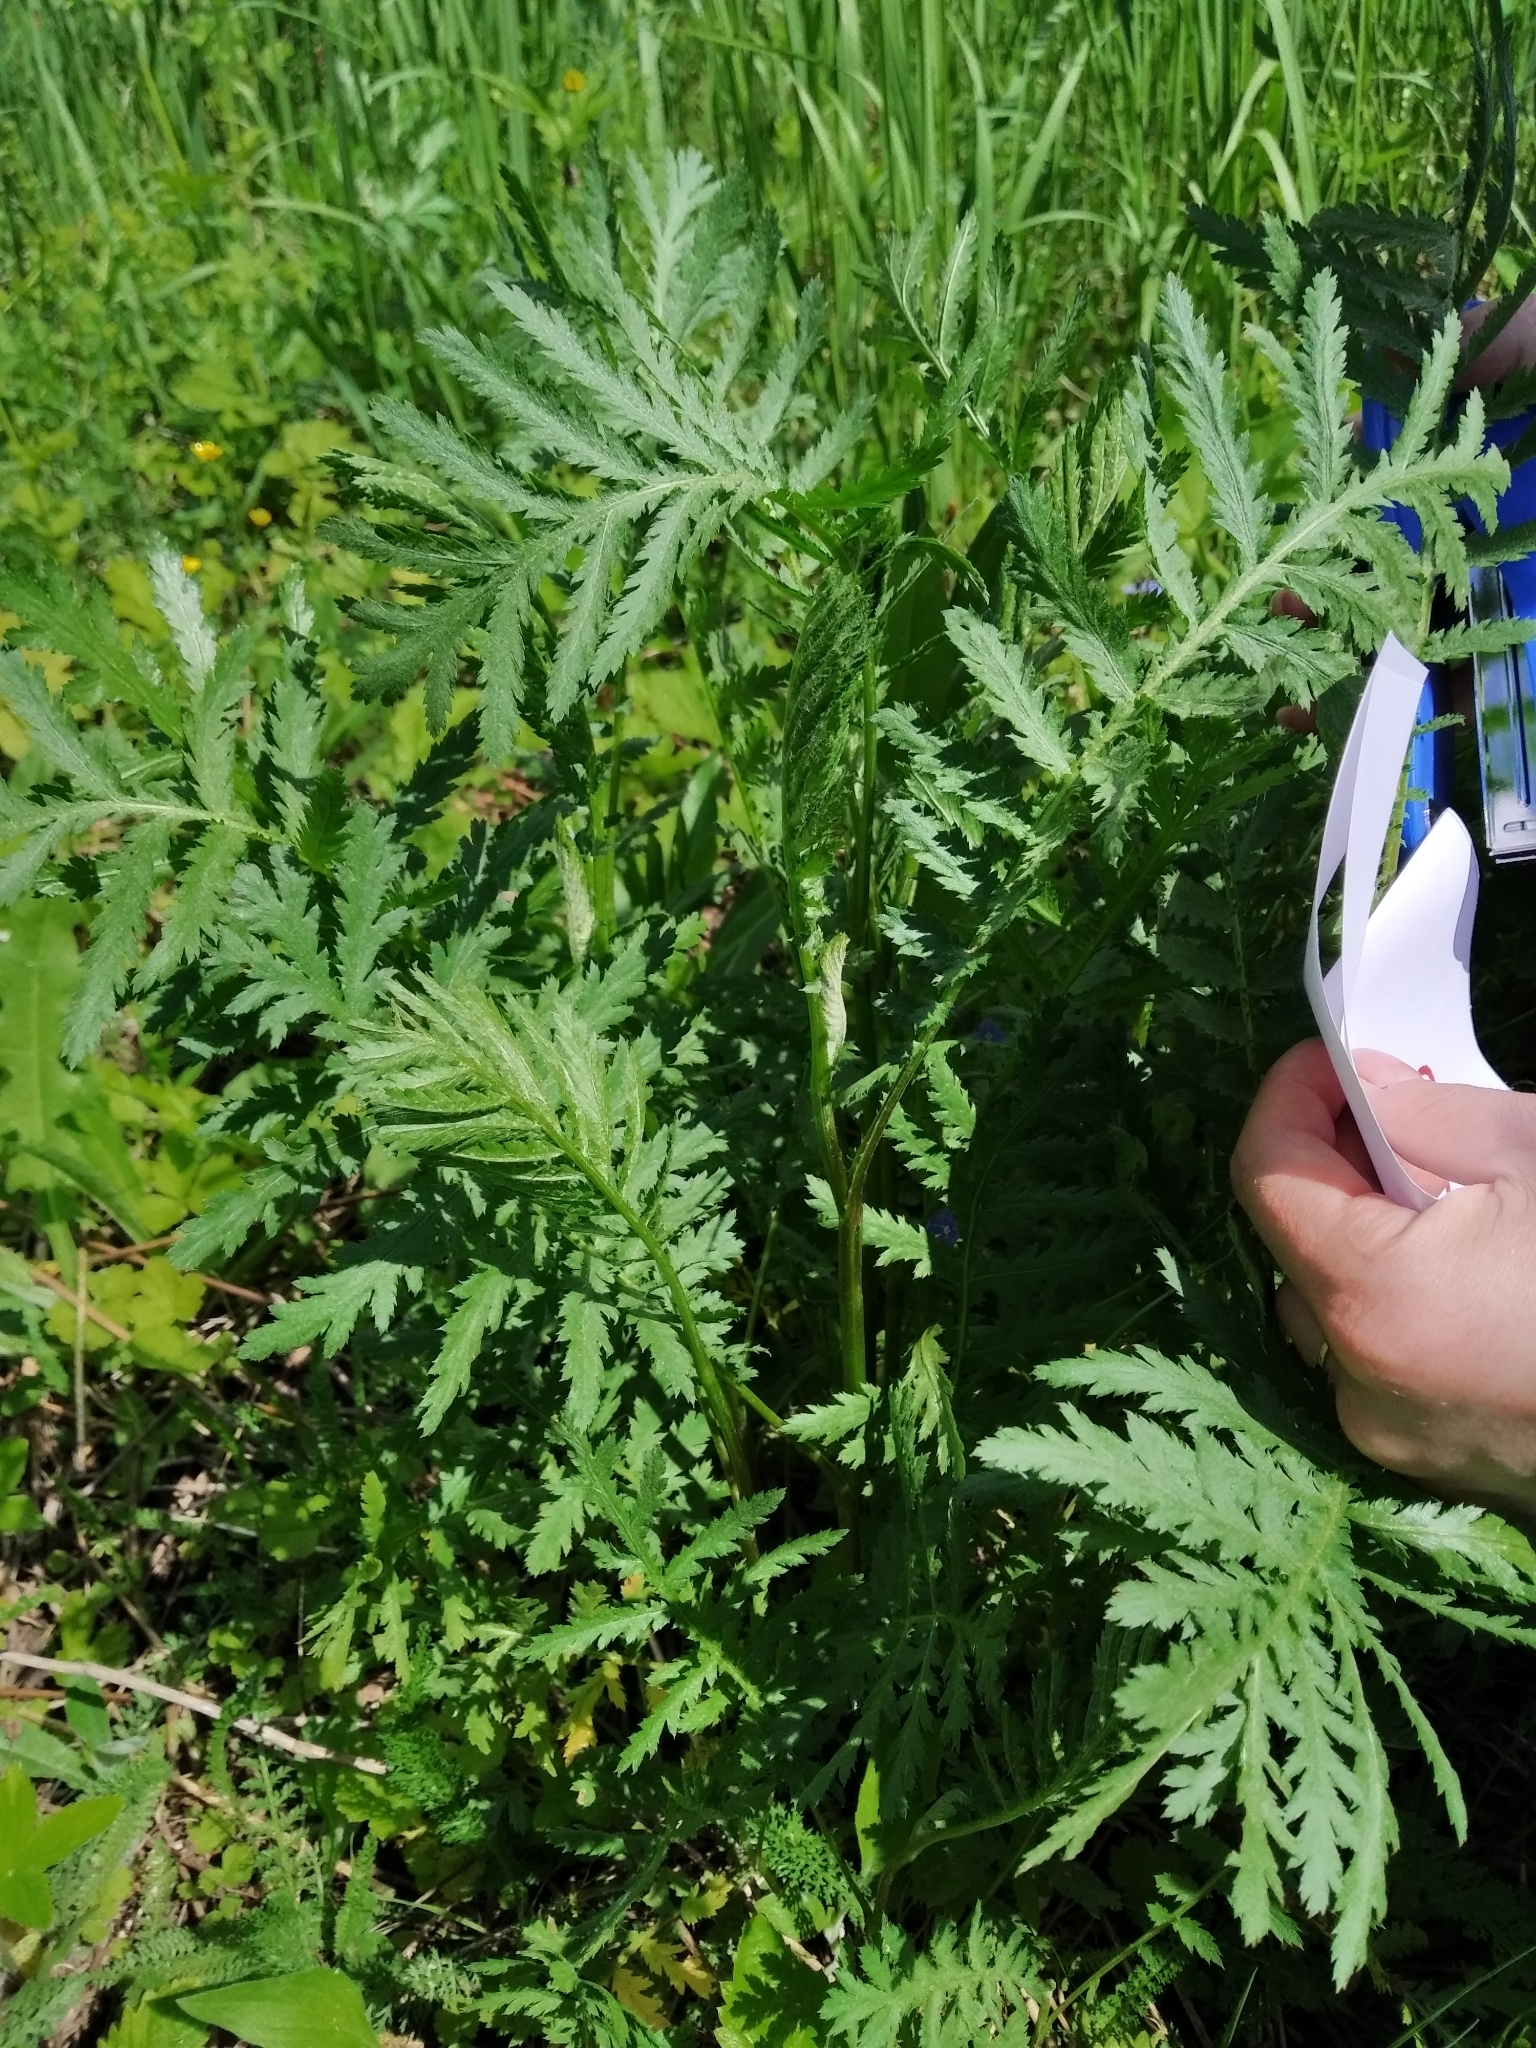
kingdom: Plantae
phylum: Tracheophyta
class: Magnoliopsida
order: Asterales
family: Asteraceae
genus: Tanacetum
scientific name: Tanacetum vulgare
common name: Common tansy
